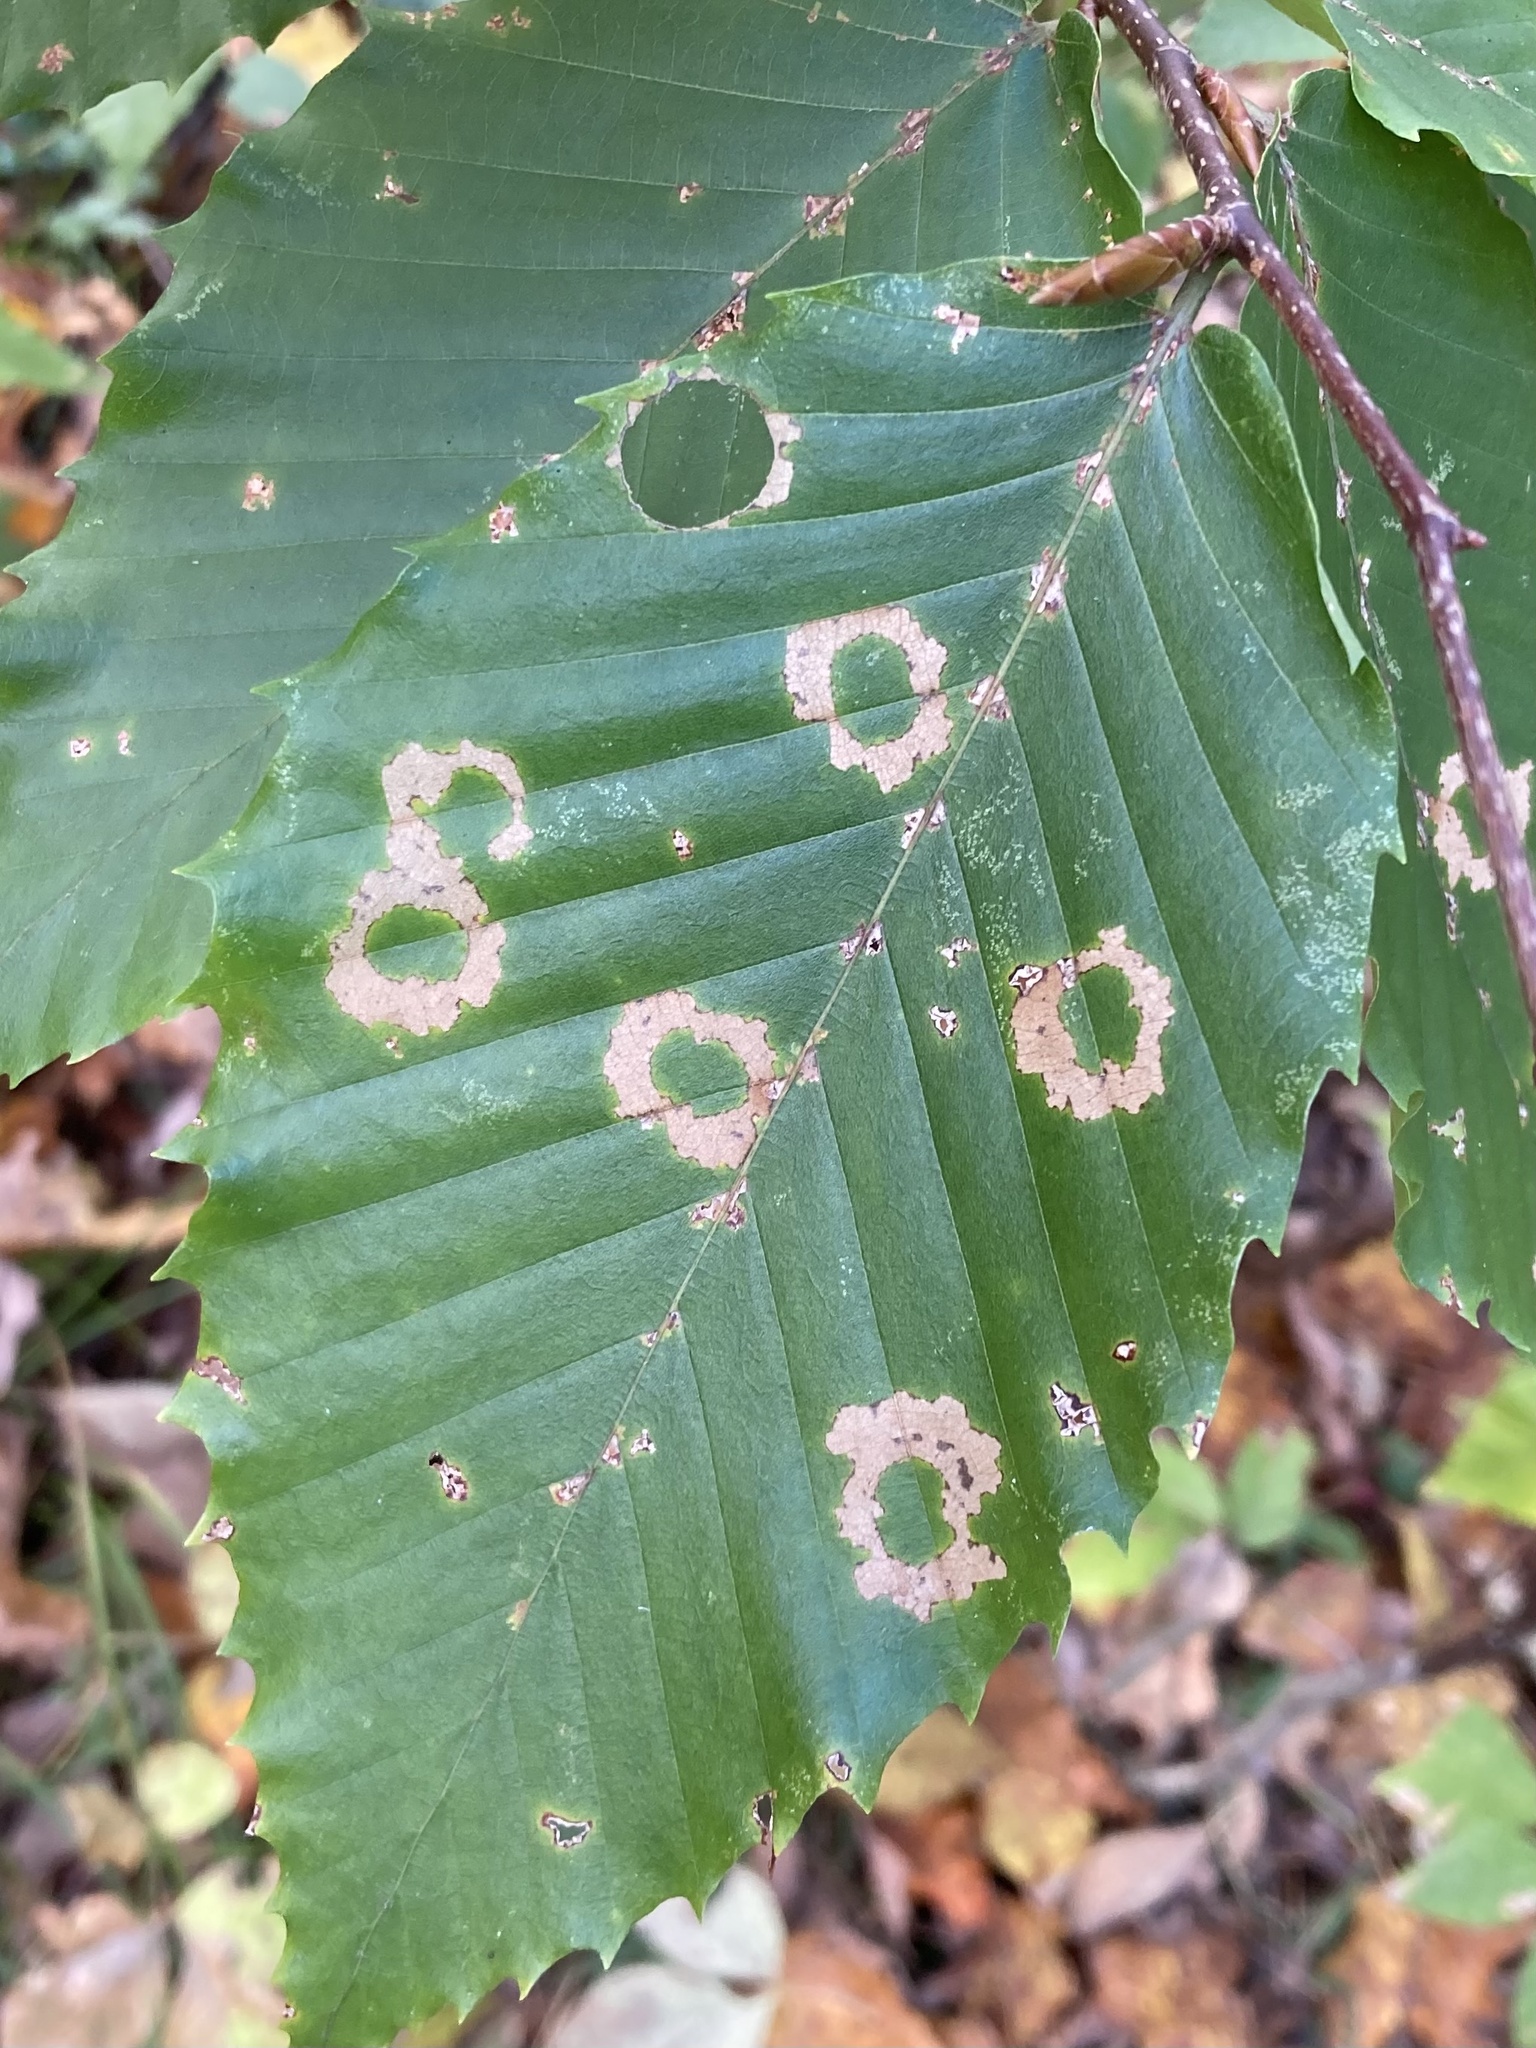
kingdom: Animalia
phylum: Arthropoda
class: Insecta
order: Lepidoptera
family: Incurvariidae
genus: Paraclemensia
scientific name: Paraclemensia acerifoliella
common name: Maple leafcutter
